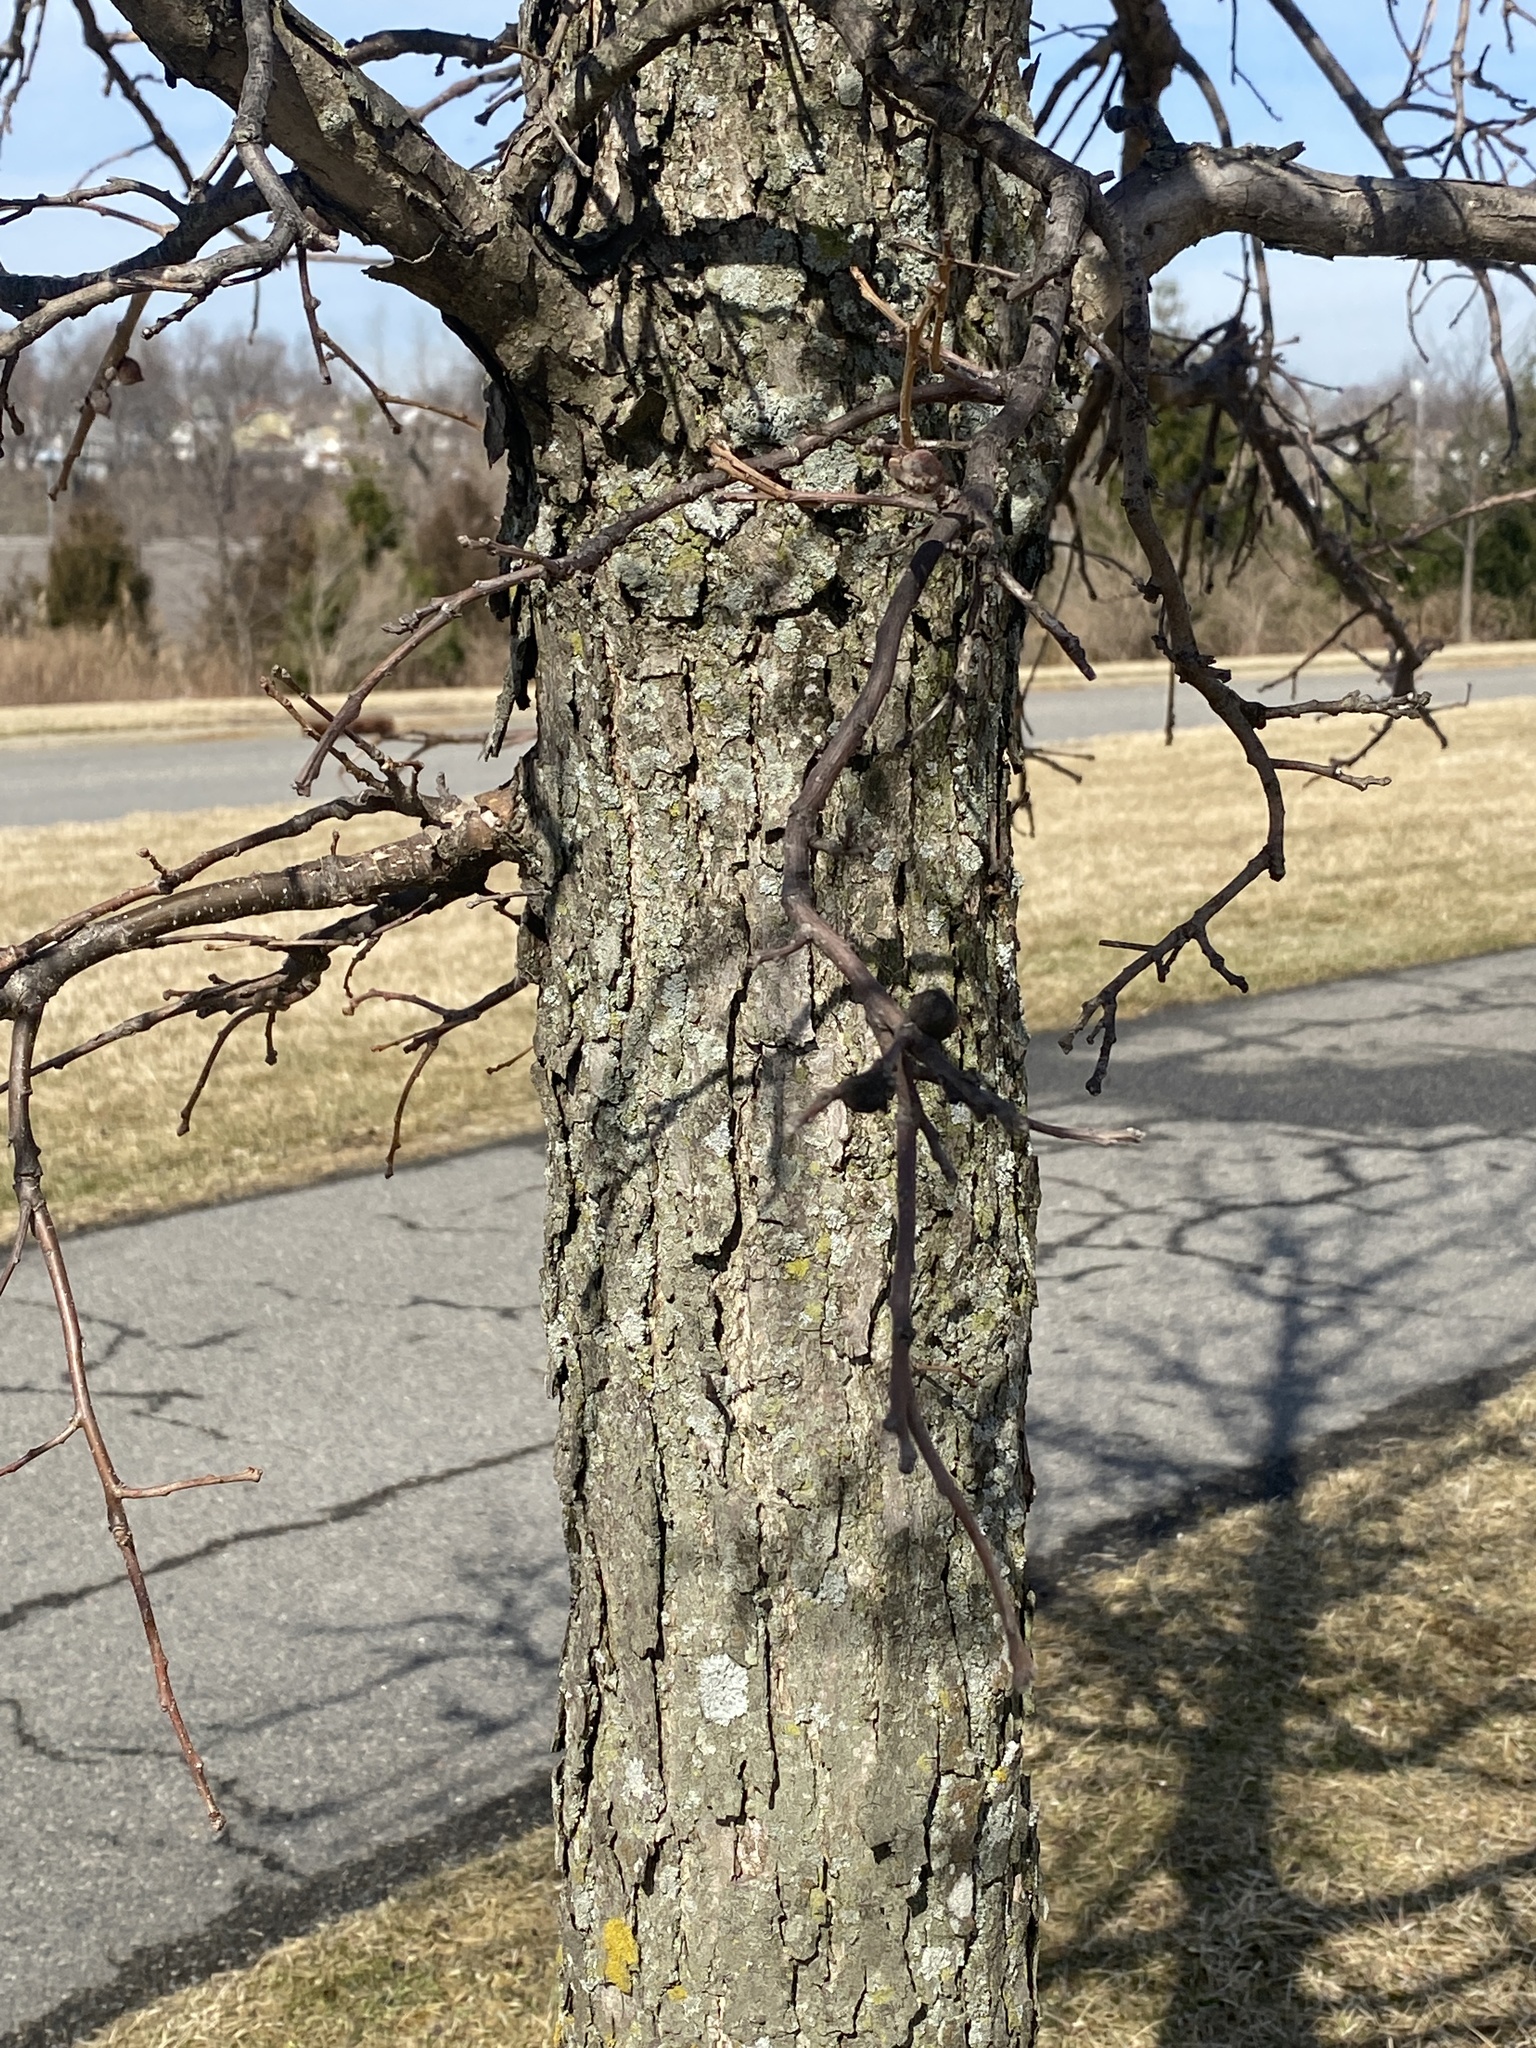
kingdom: Animalia
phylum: Arthropoda
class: Insecta
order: Hymenoptera
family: Cynipidae
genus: Disholcaspis
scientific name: Disholcaspis
